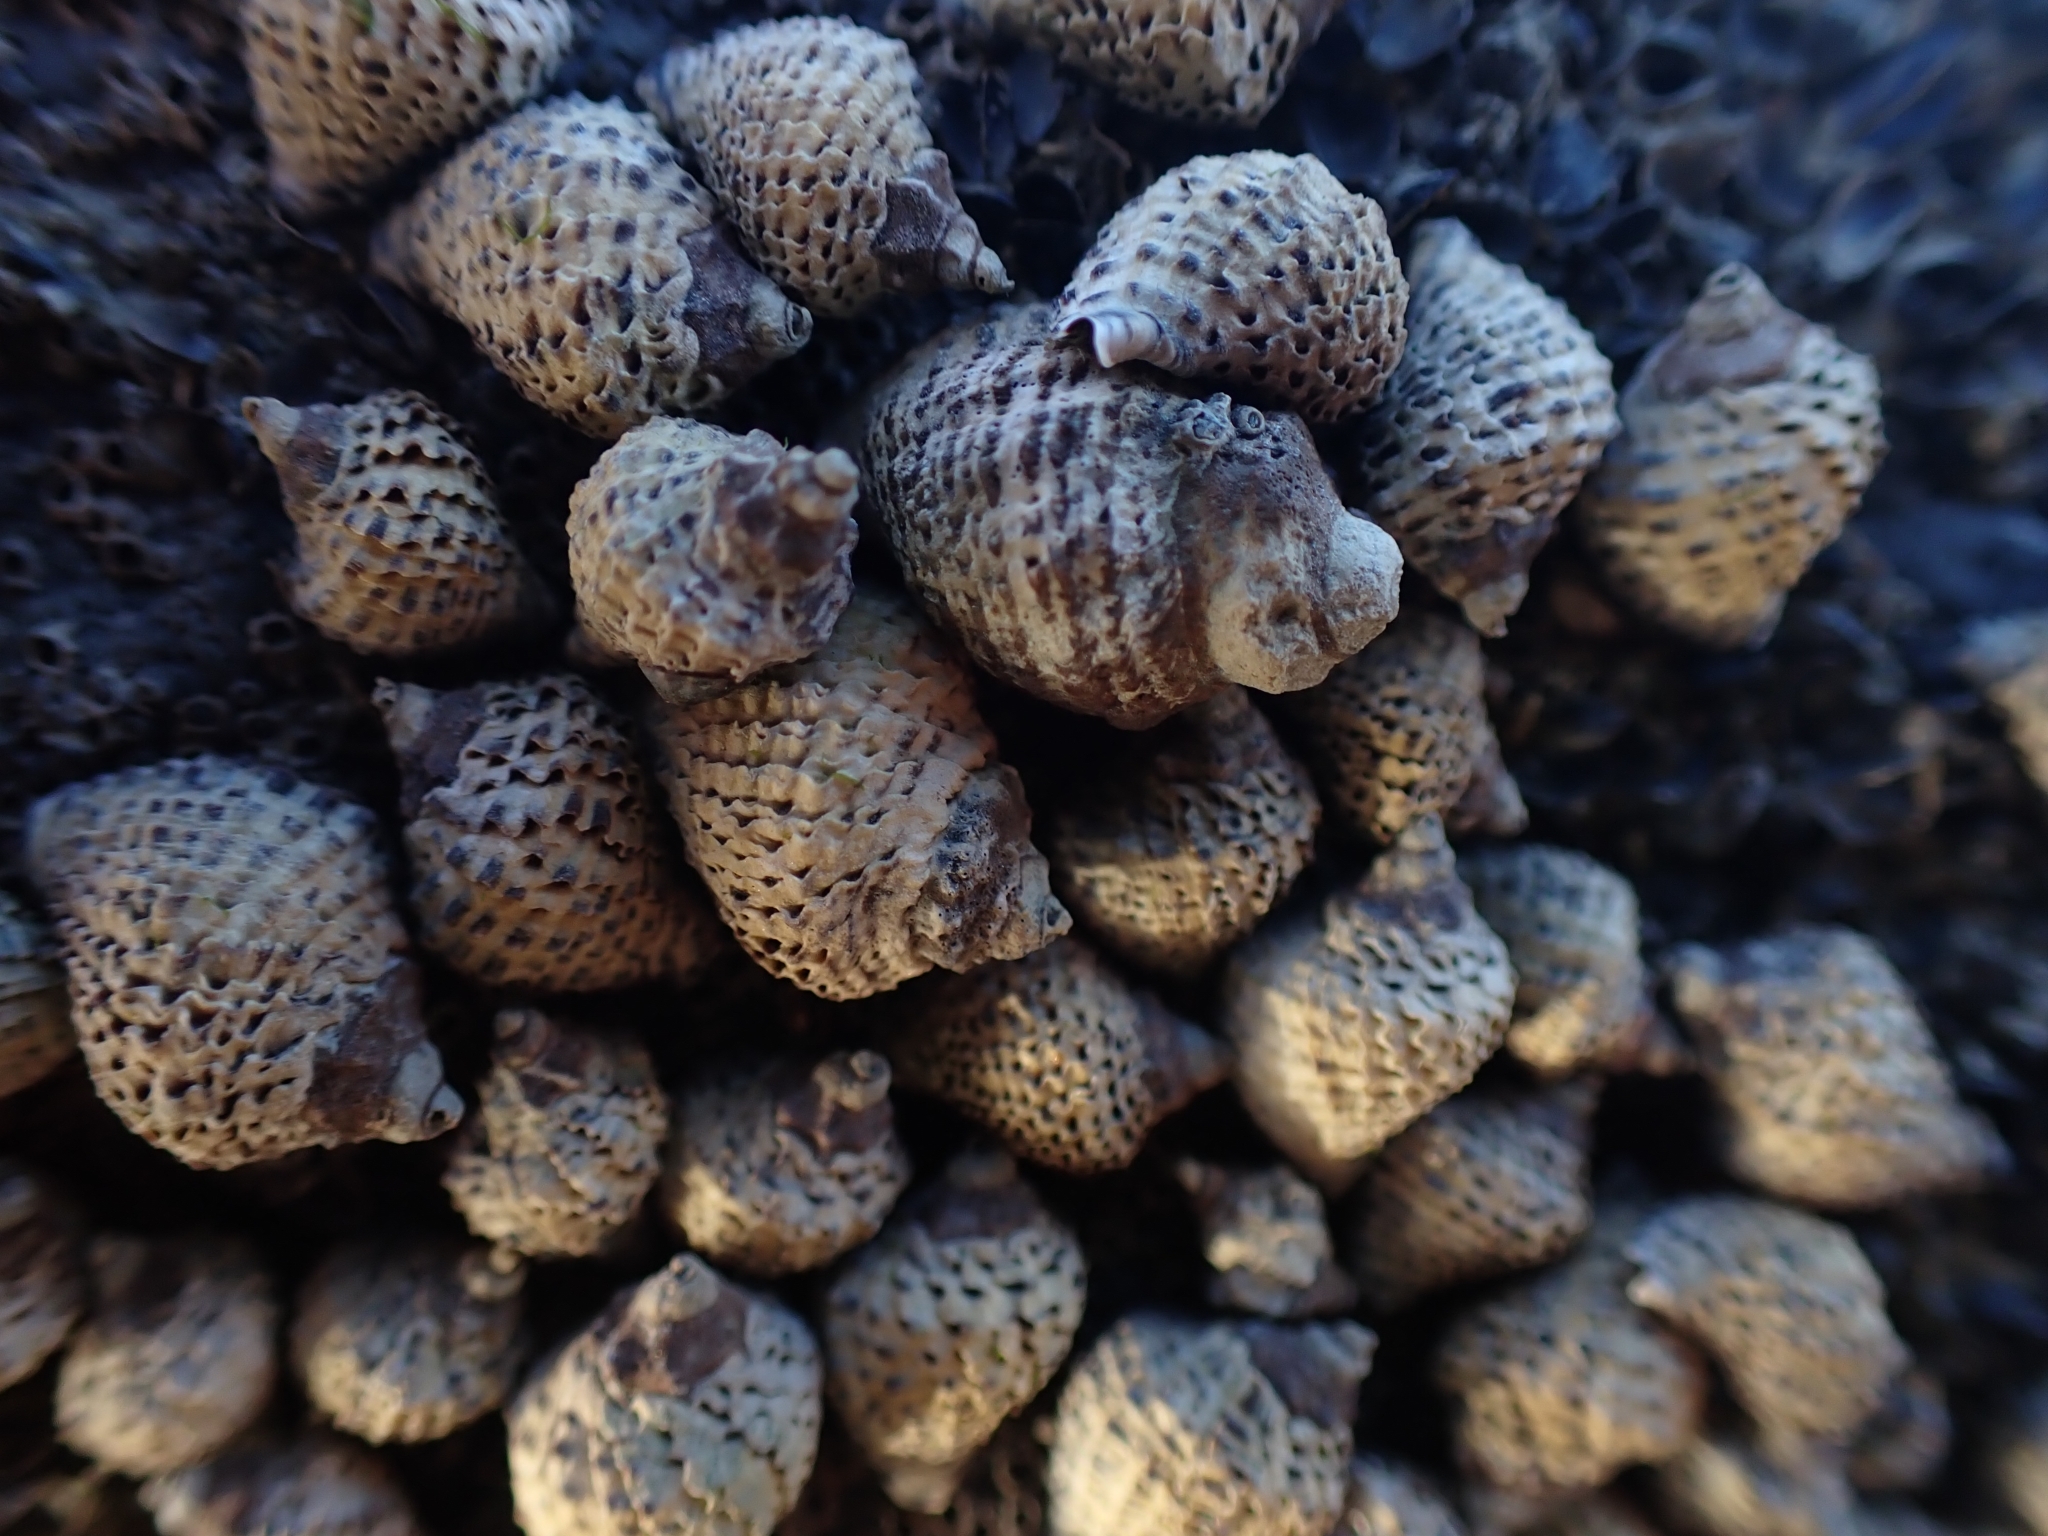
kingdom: Animalia
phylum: Mollusca
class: Gastropoda
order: Neogastropoda
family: Muricidae
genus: Haustrum
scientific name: Haustrum scobina
